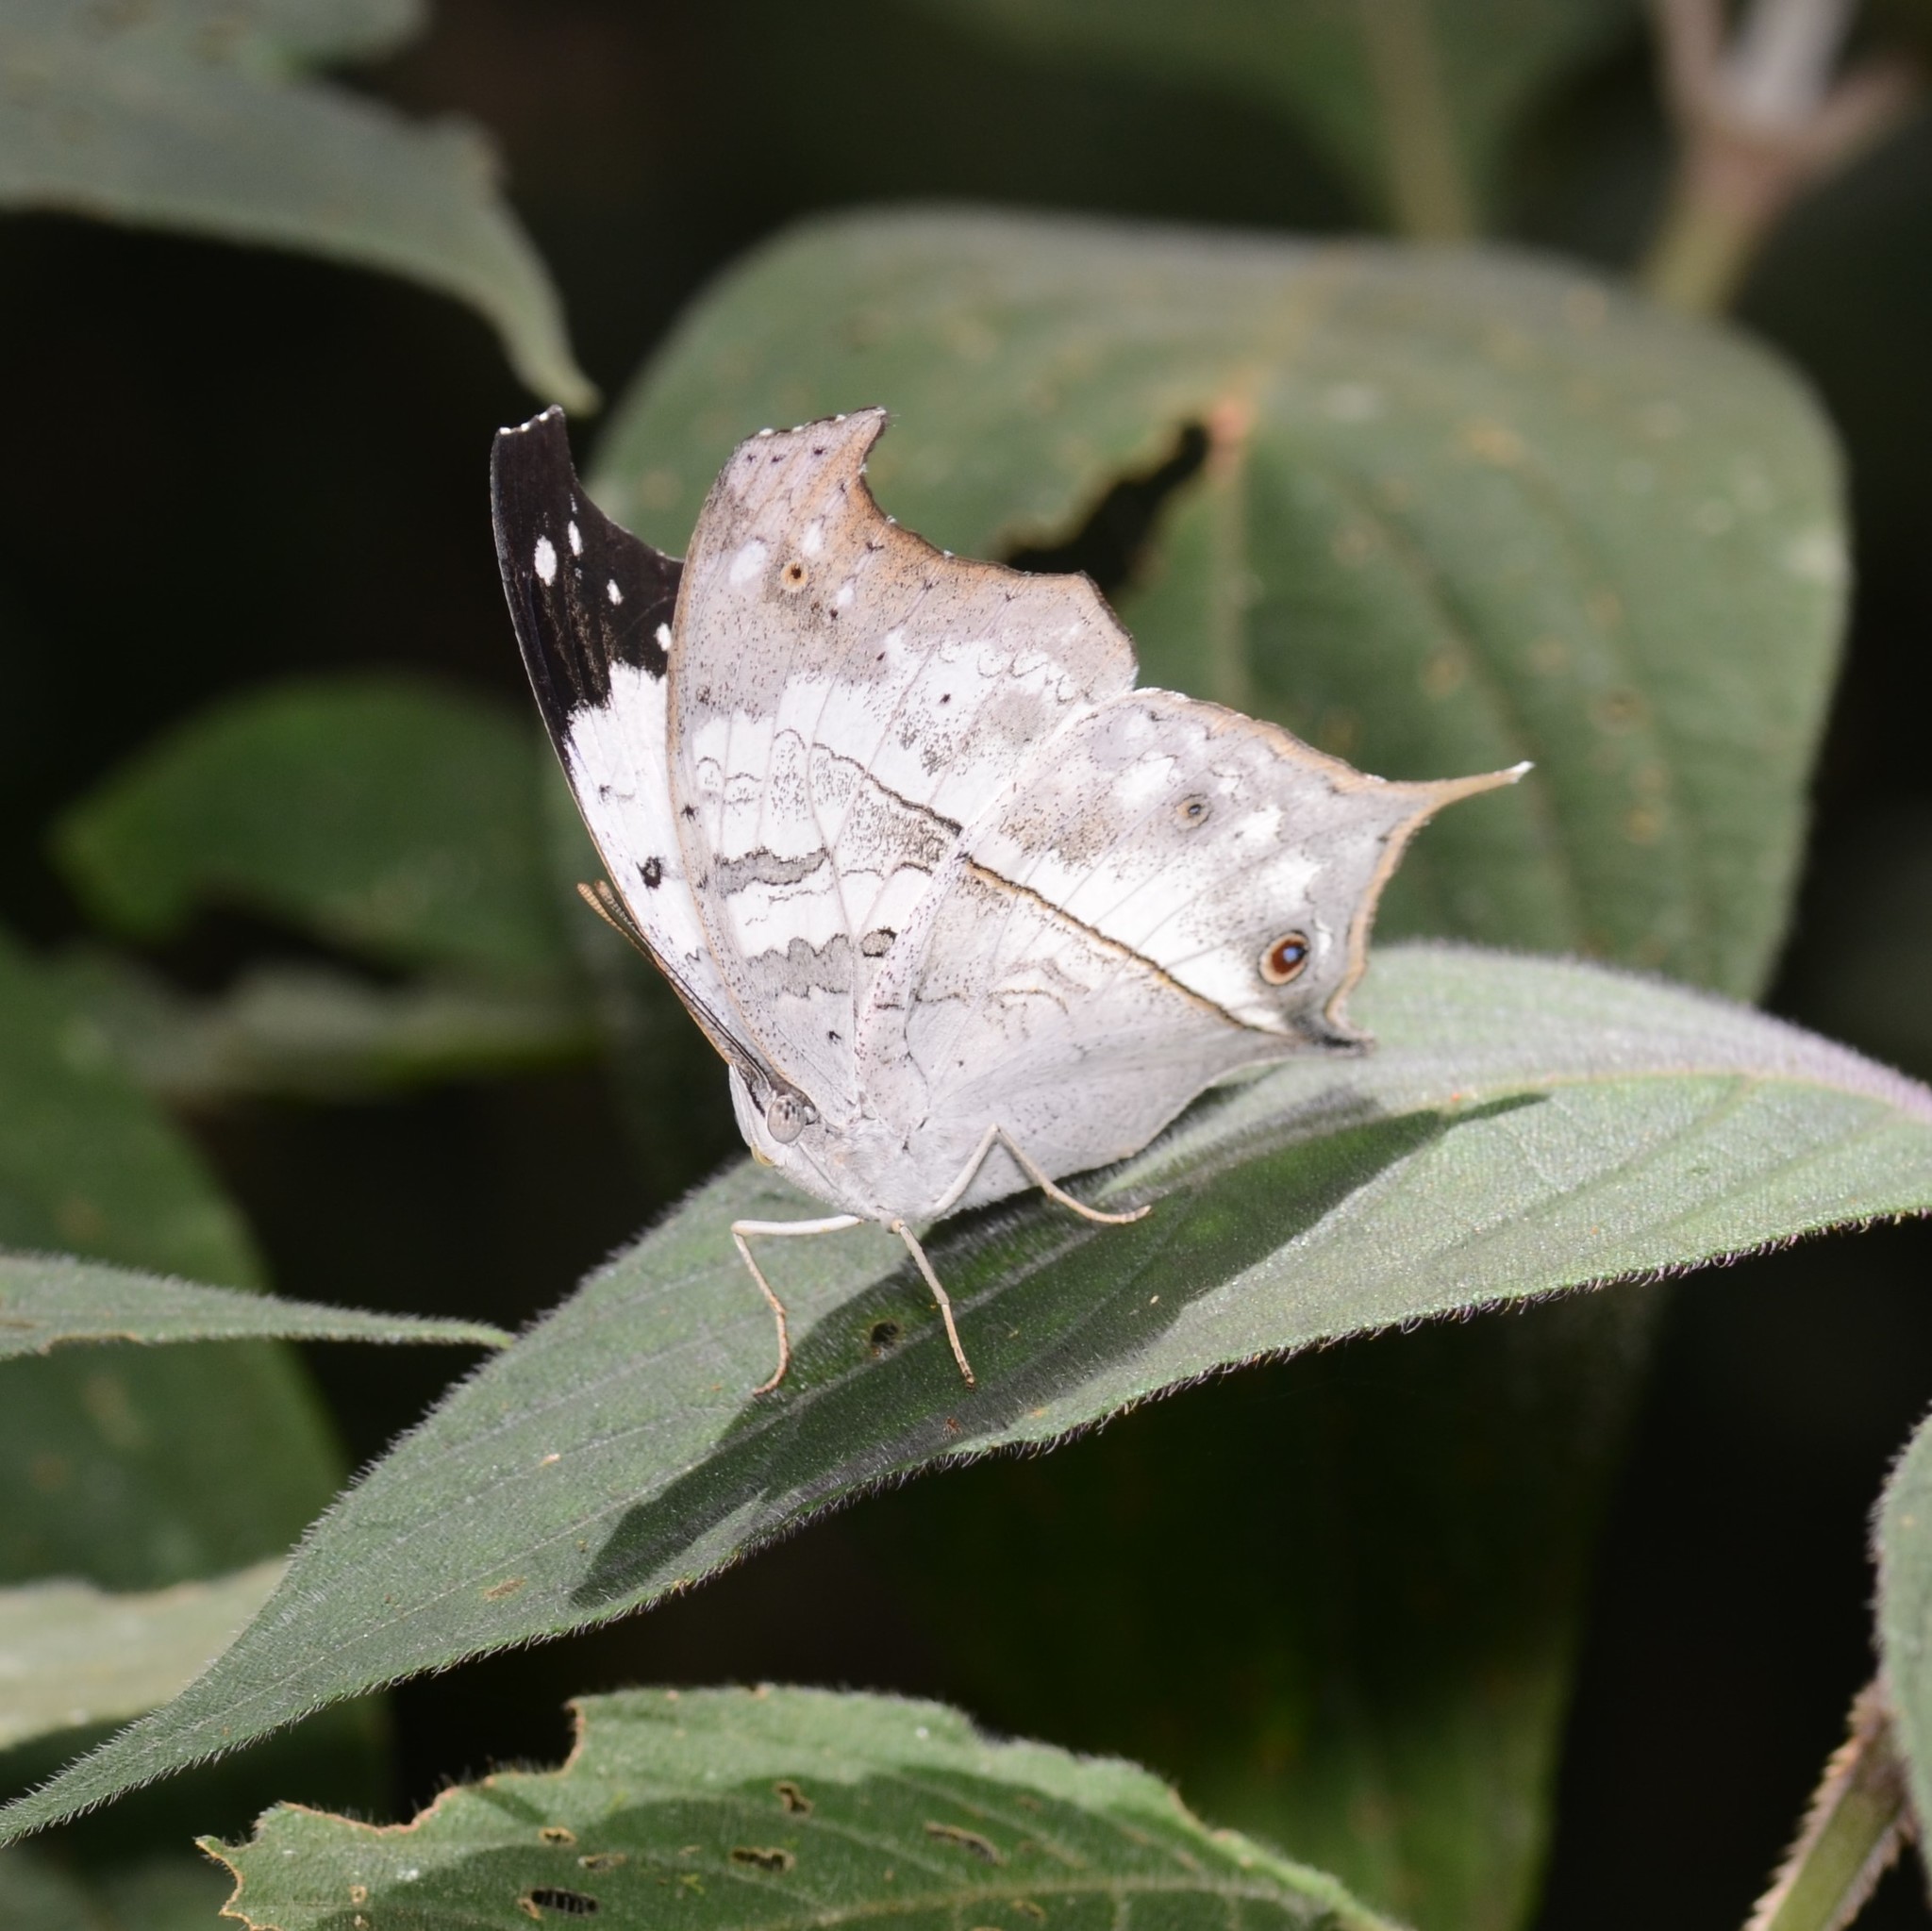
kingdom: Animalia
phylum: Arthropoda
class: Insecta
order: Lepidoptera
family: Nymphalidae
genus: Salamis
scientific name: Salamis Protogoniomorpha duprei
